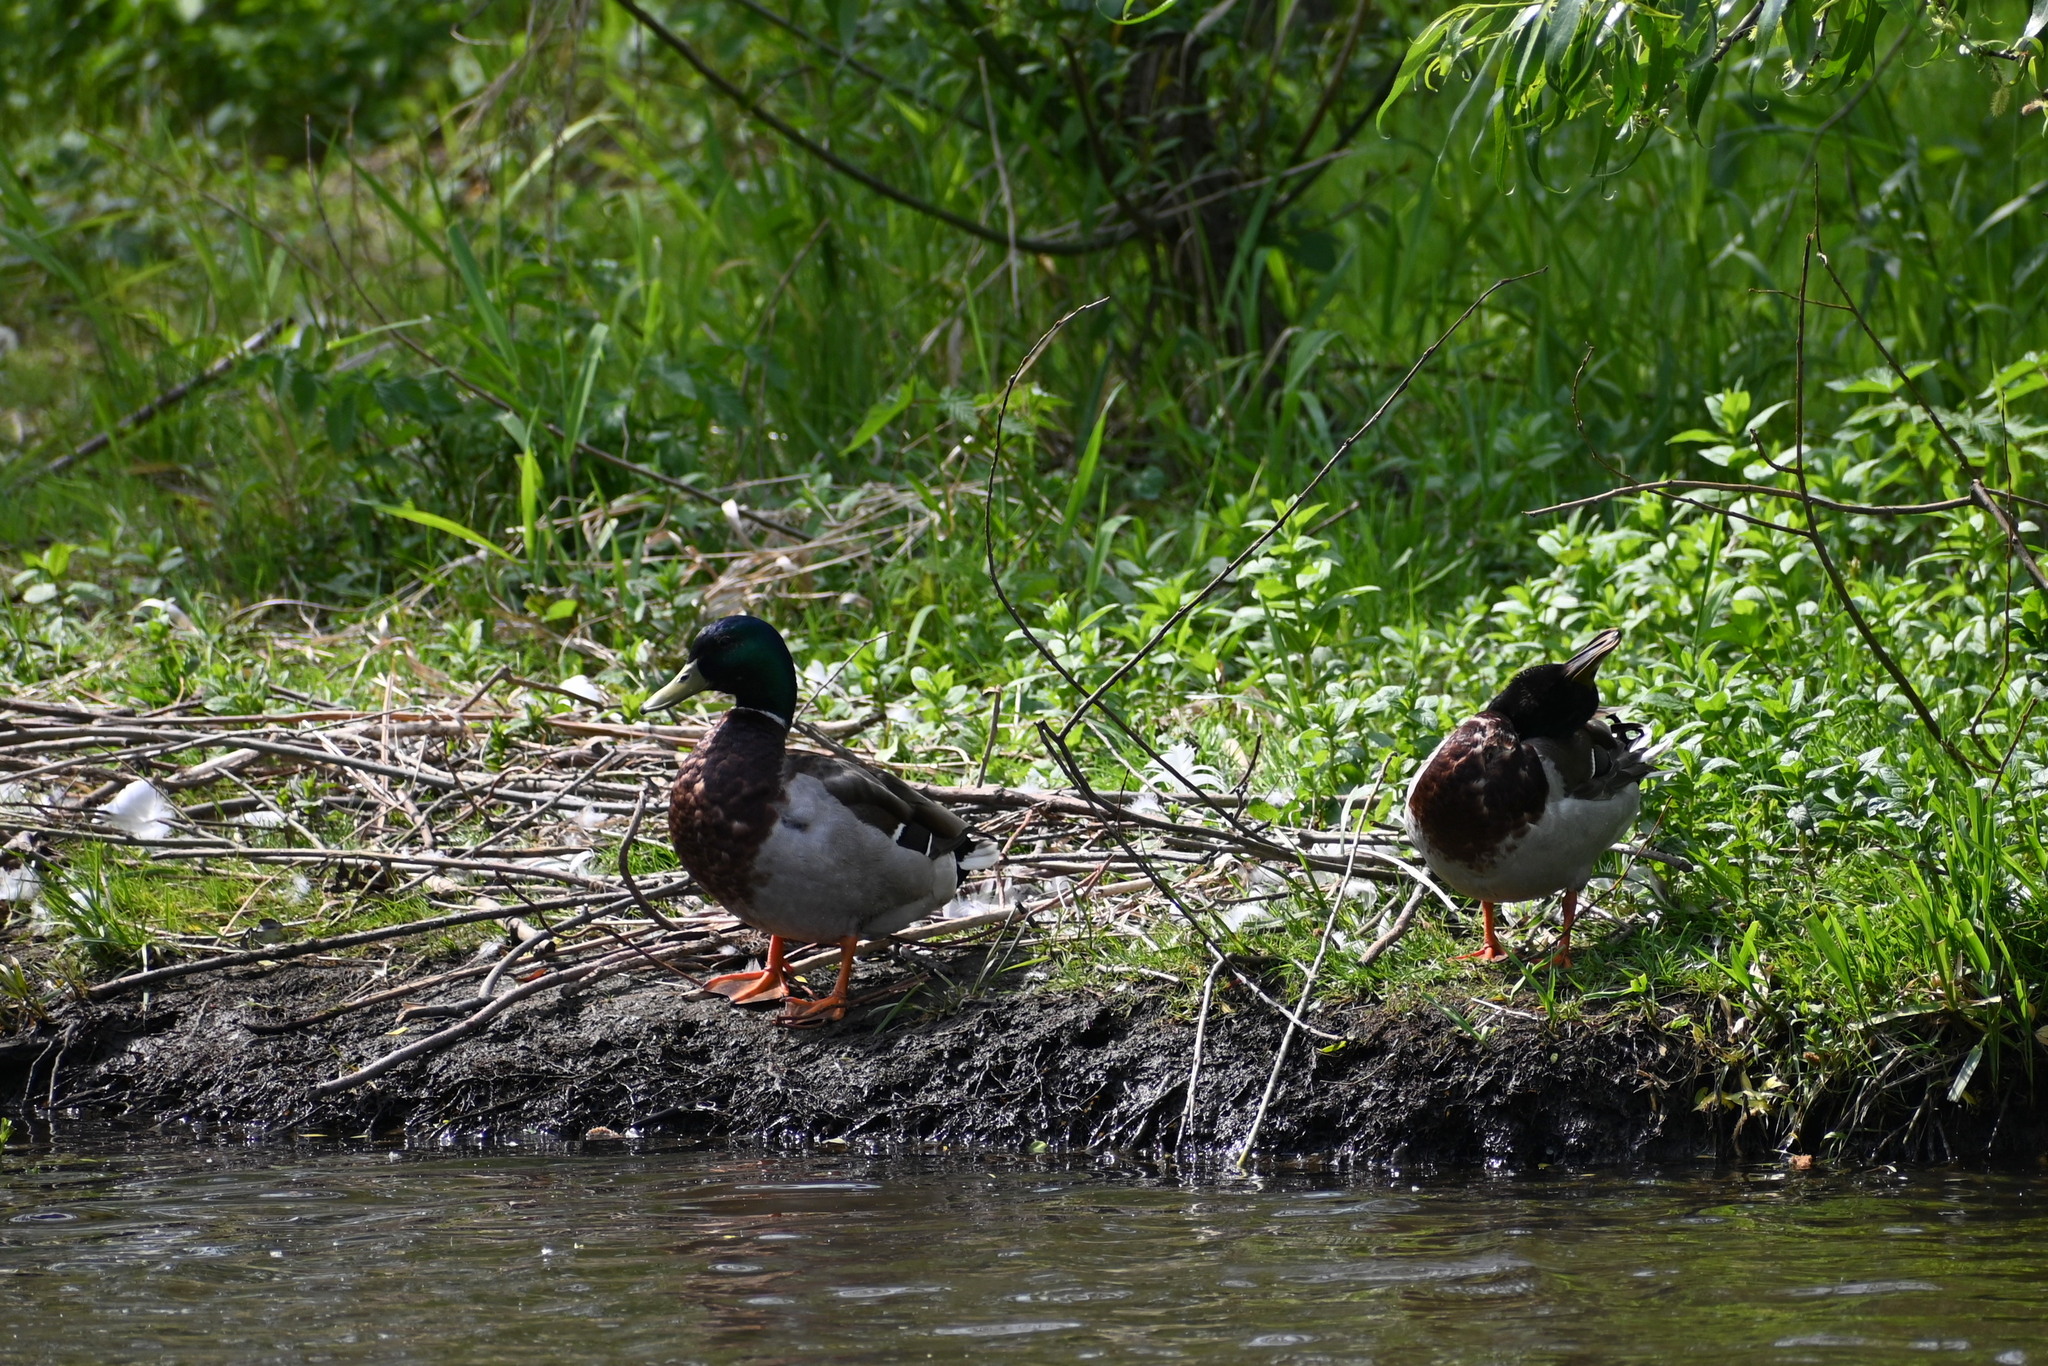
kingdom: Animalia
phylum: Chordata
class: Aves
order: Anseriformes
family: Anatidae
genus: Anas
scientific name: Anas platyrhynchos
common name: Mallard
